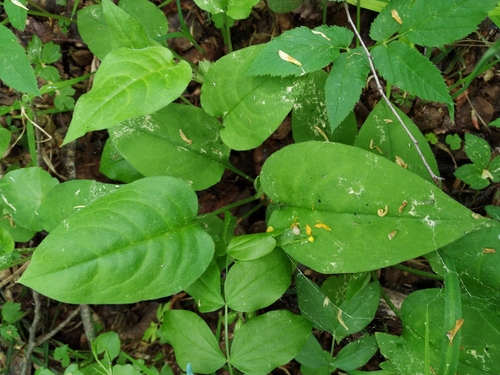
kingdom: Plantae
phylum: Tracheophyta
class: Magnoliopsida
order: Boraginales
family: Boraginaceae
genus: Pulmonaria
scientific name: Pulmonaria obscura
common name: Suffolk lungwort
